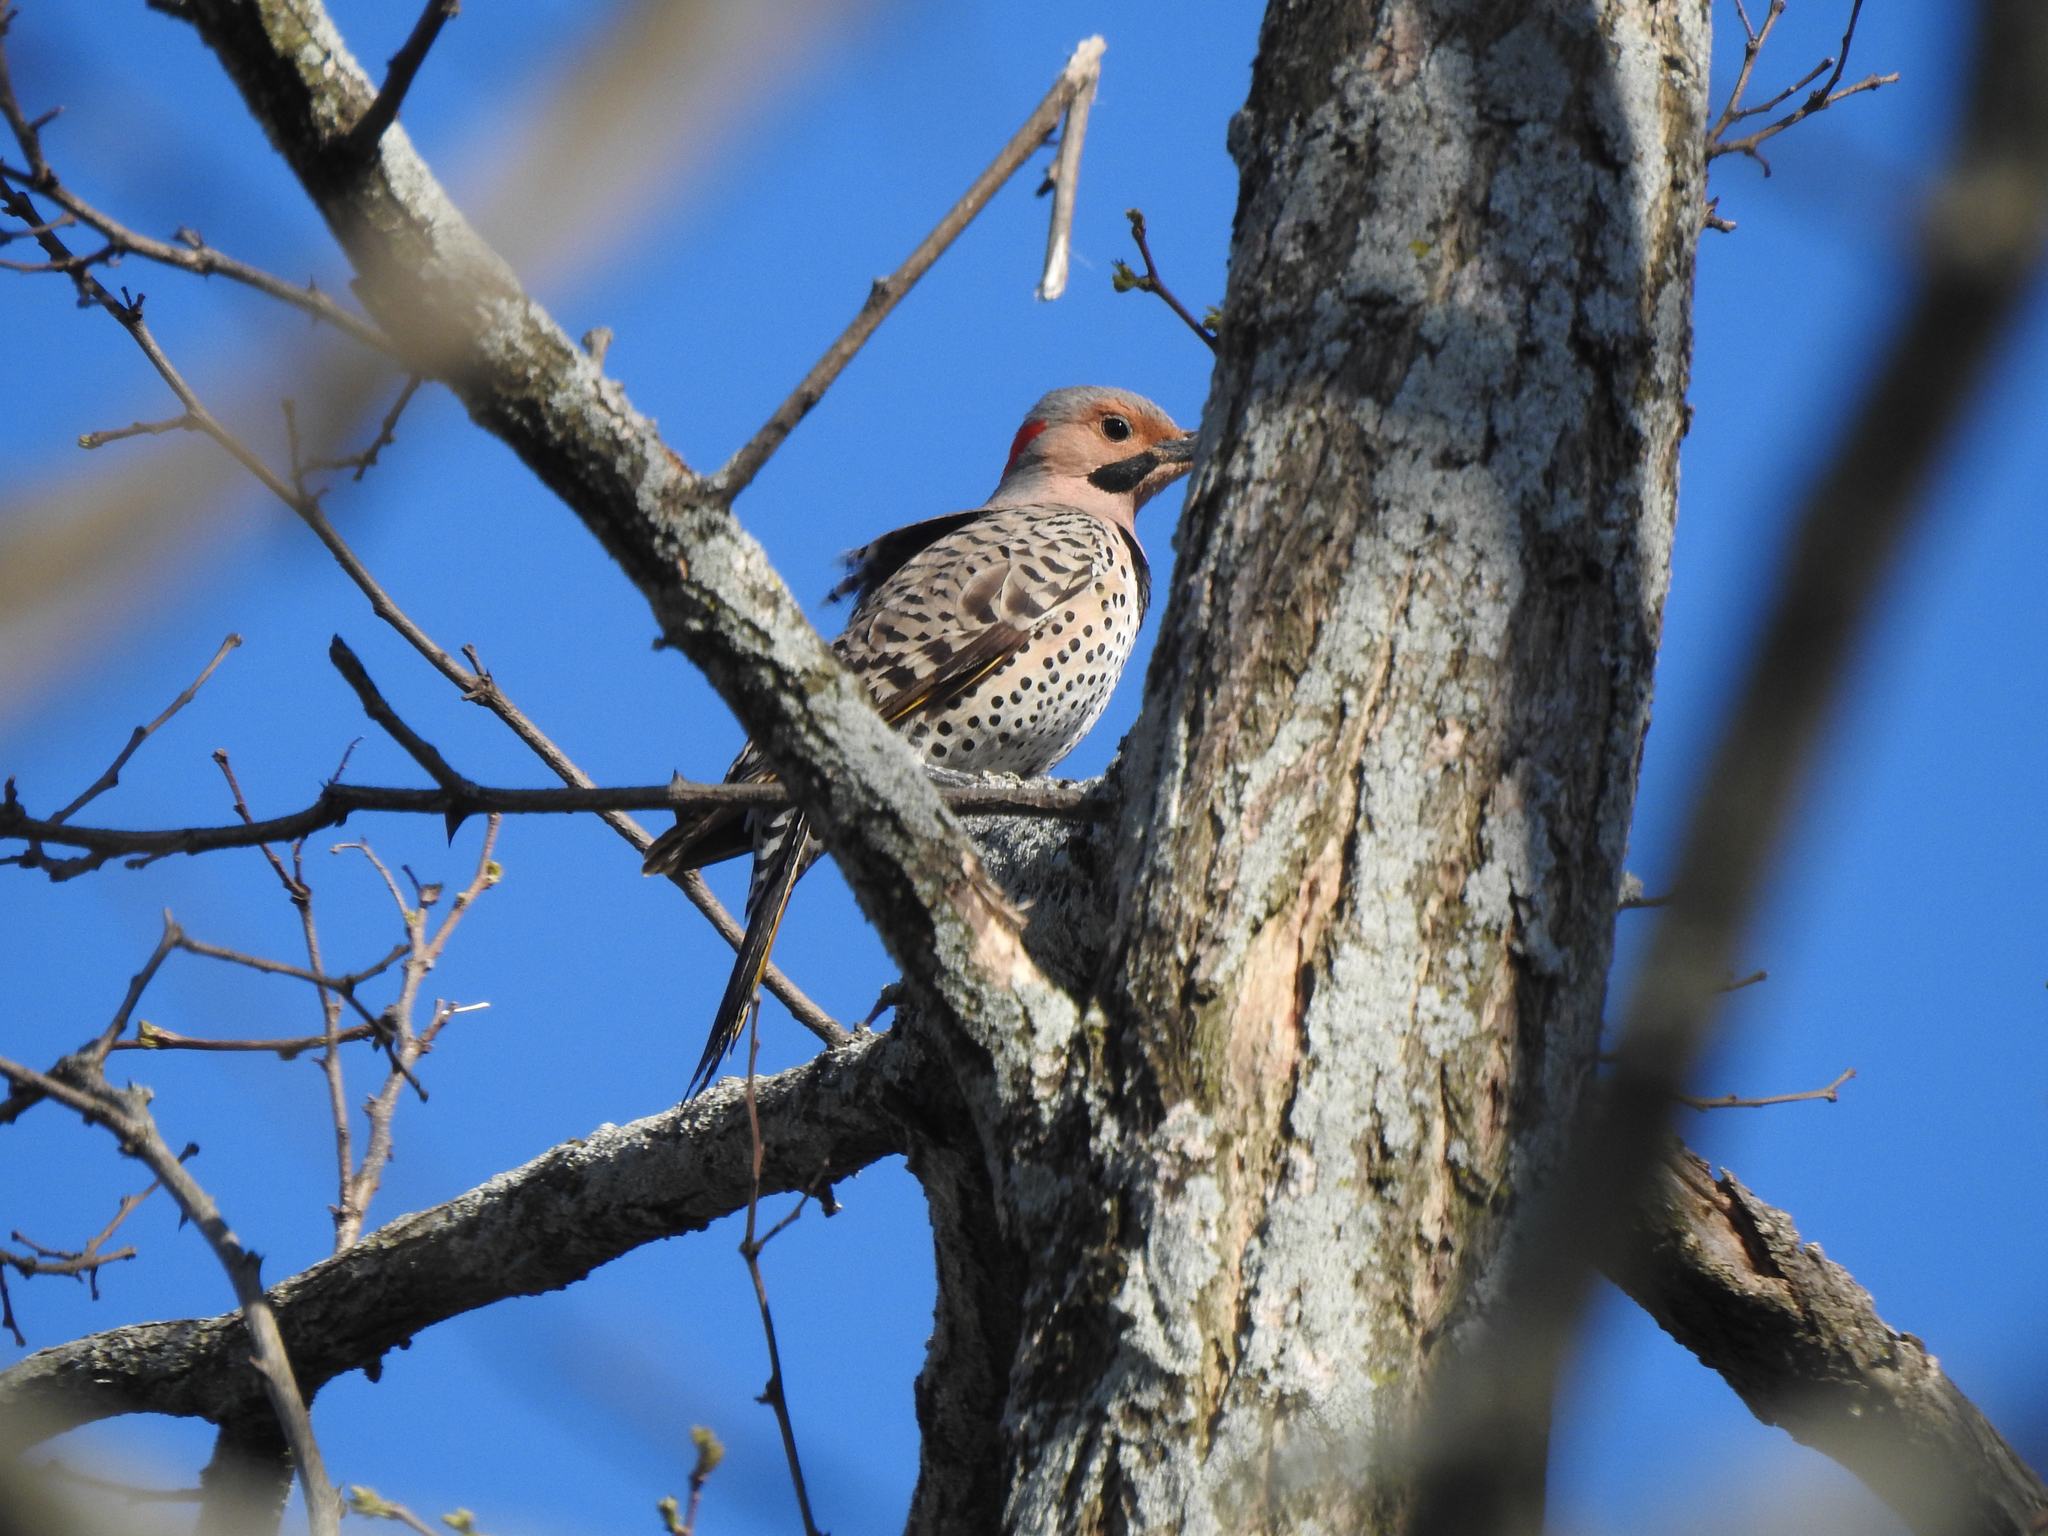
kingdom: Animalia
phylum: Chordata
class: Aves
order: Piciformes
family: Picidae
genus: Colaptes
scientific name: Colaptes auratus
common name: Northern flicker
